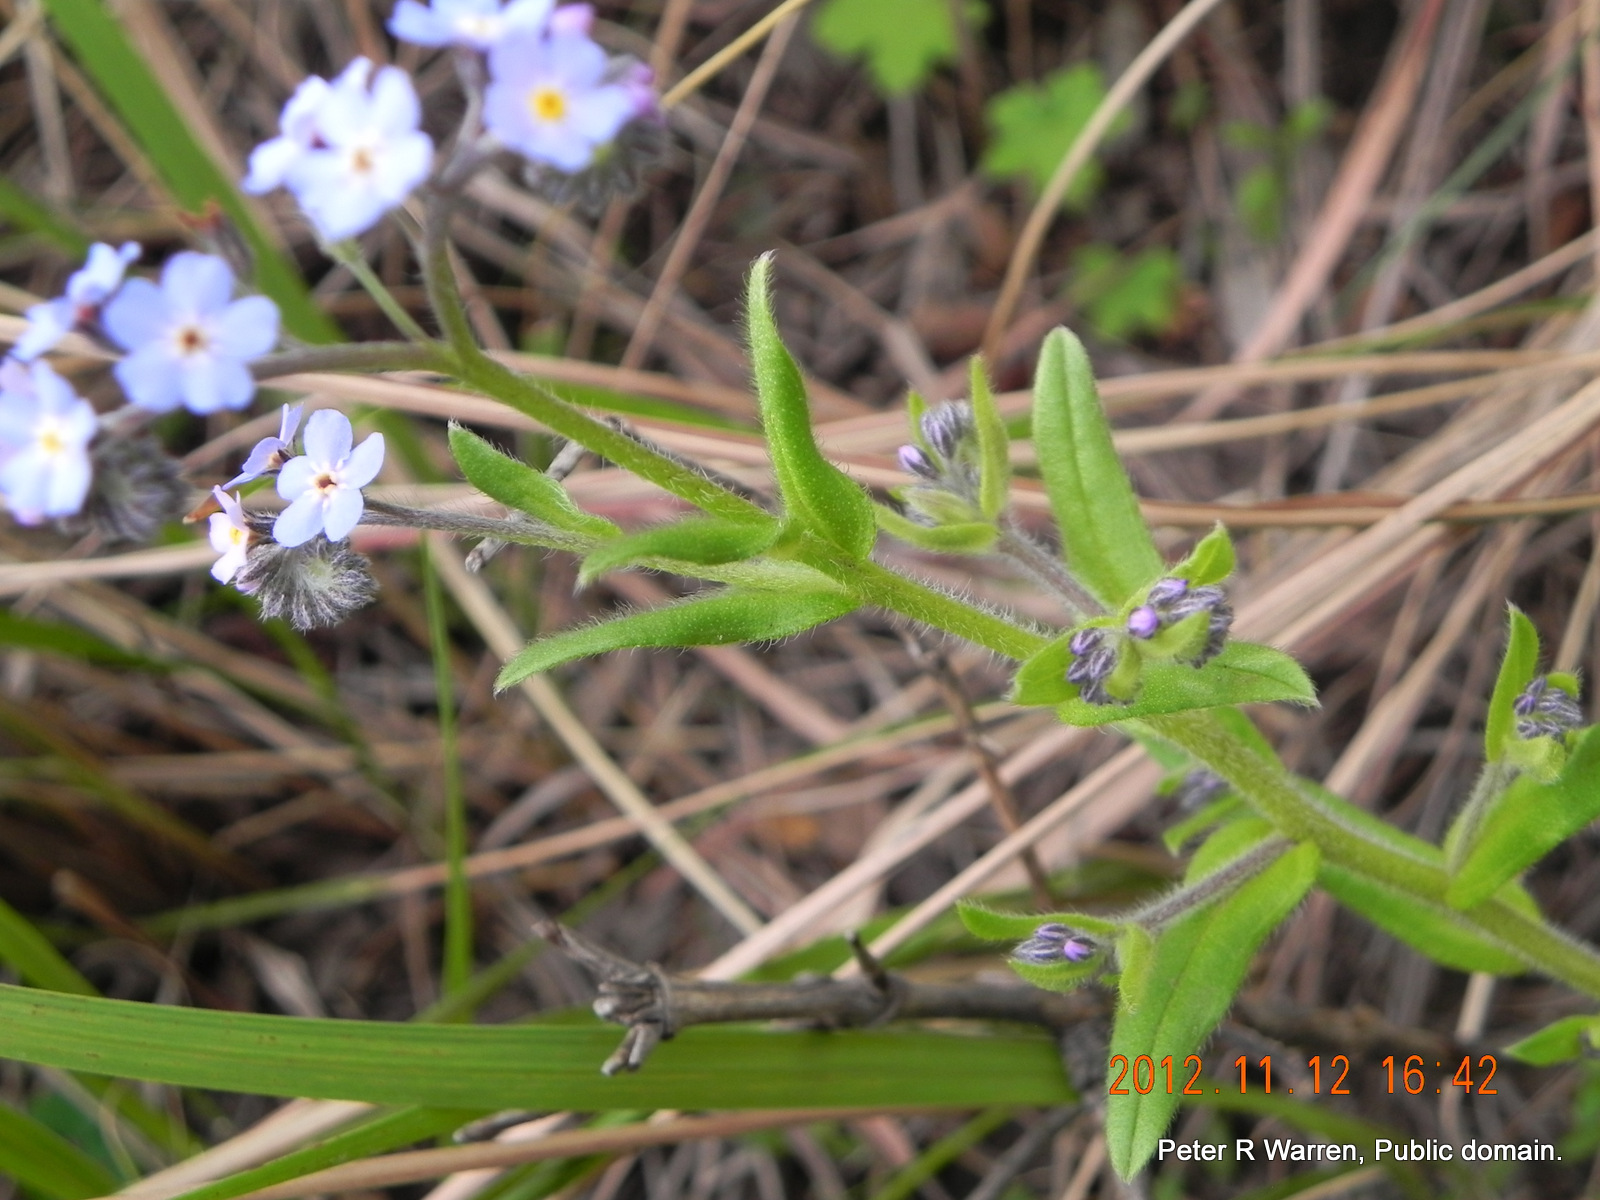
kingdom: Plantae
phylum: Tracheophyta
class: Magnoliopsida
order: Boraginales
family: Boraginaceae
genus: Myosotis
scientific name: Myosotis afropalustris
